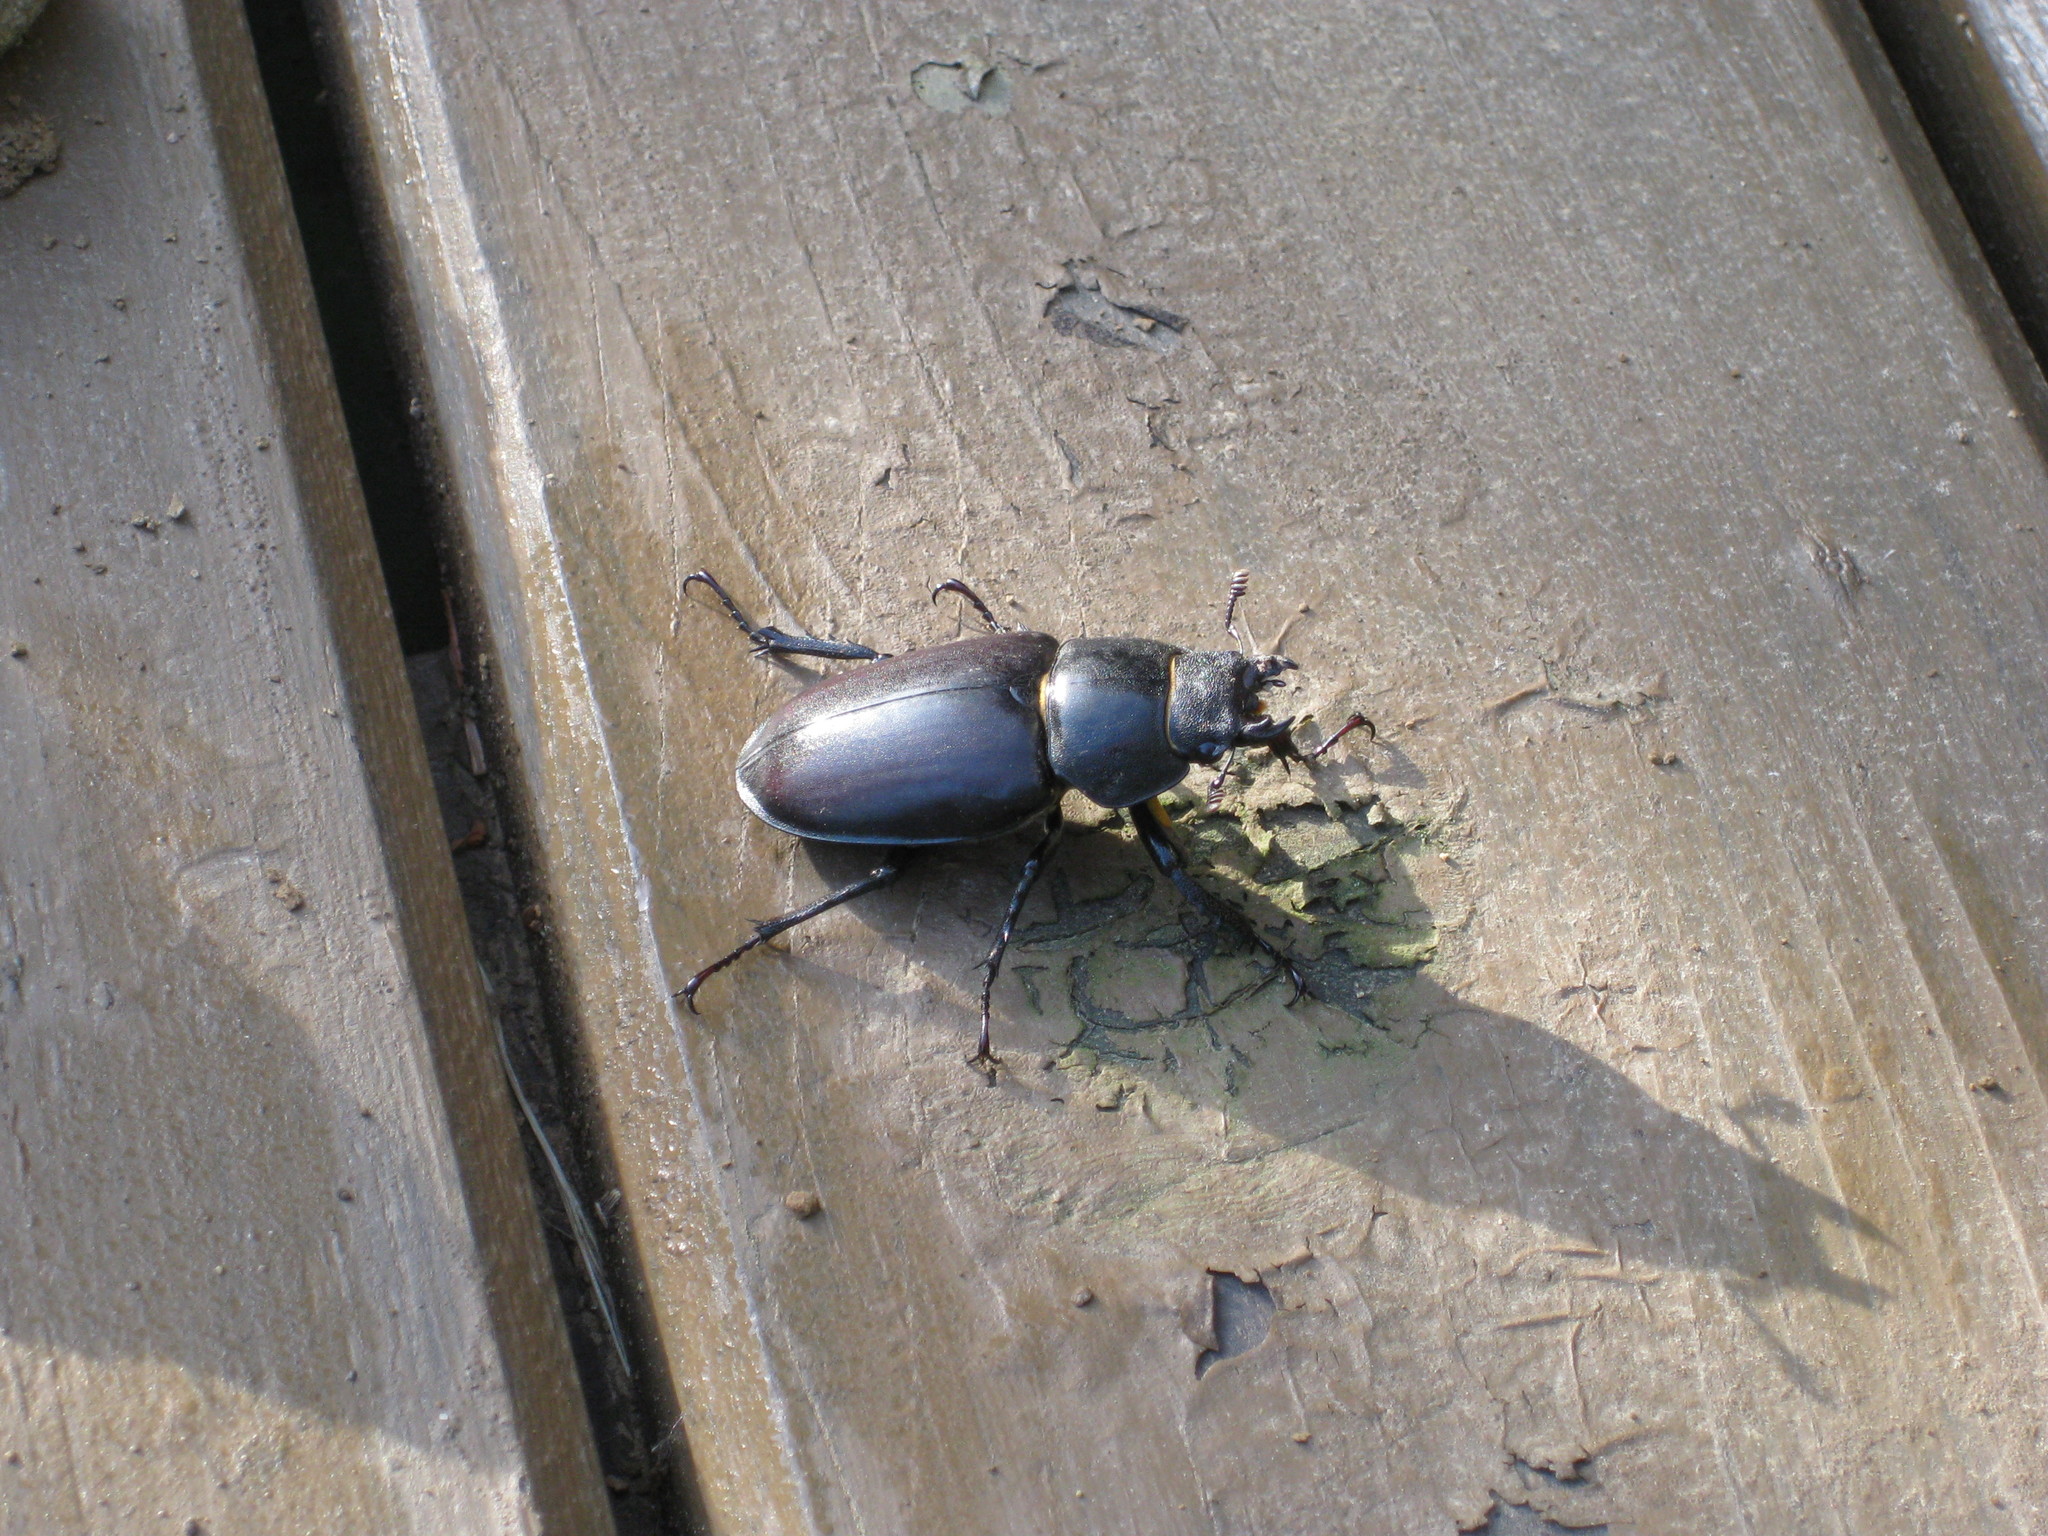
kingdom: Animalia
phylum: Arthropoda
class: Insecta
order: Coleoptera
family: Lucanidae
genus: Lucanus
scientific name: Lucanus cervus
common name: Stag beetle
